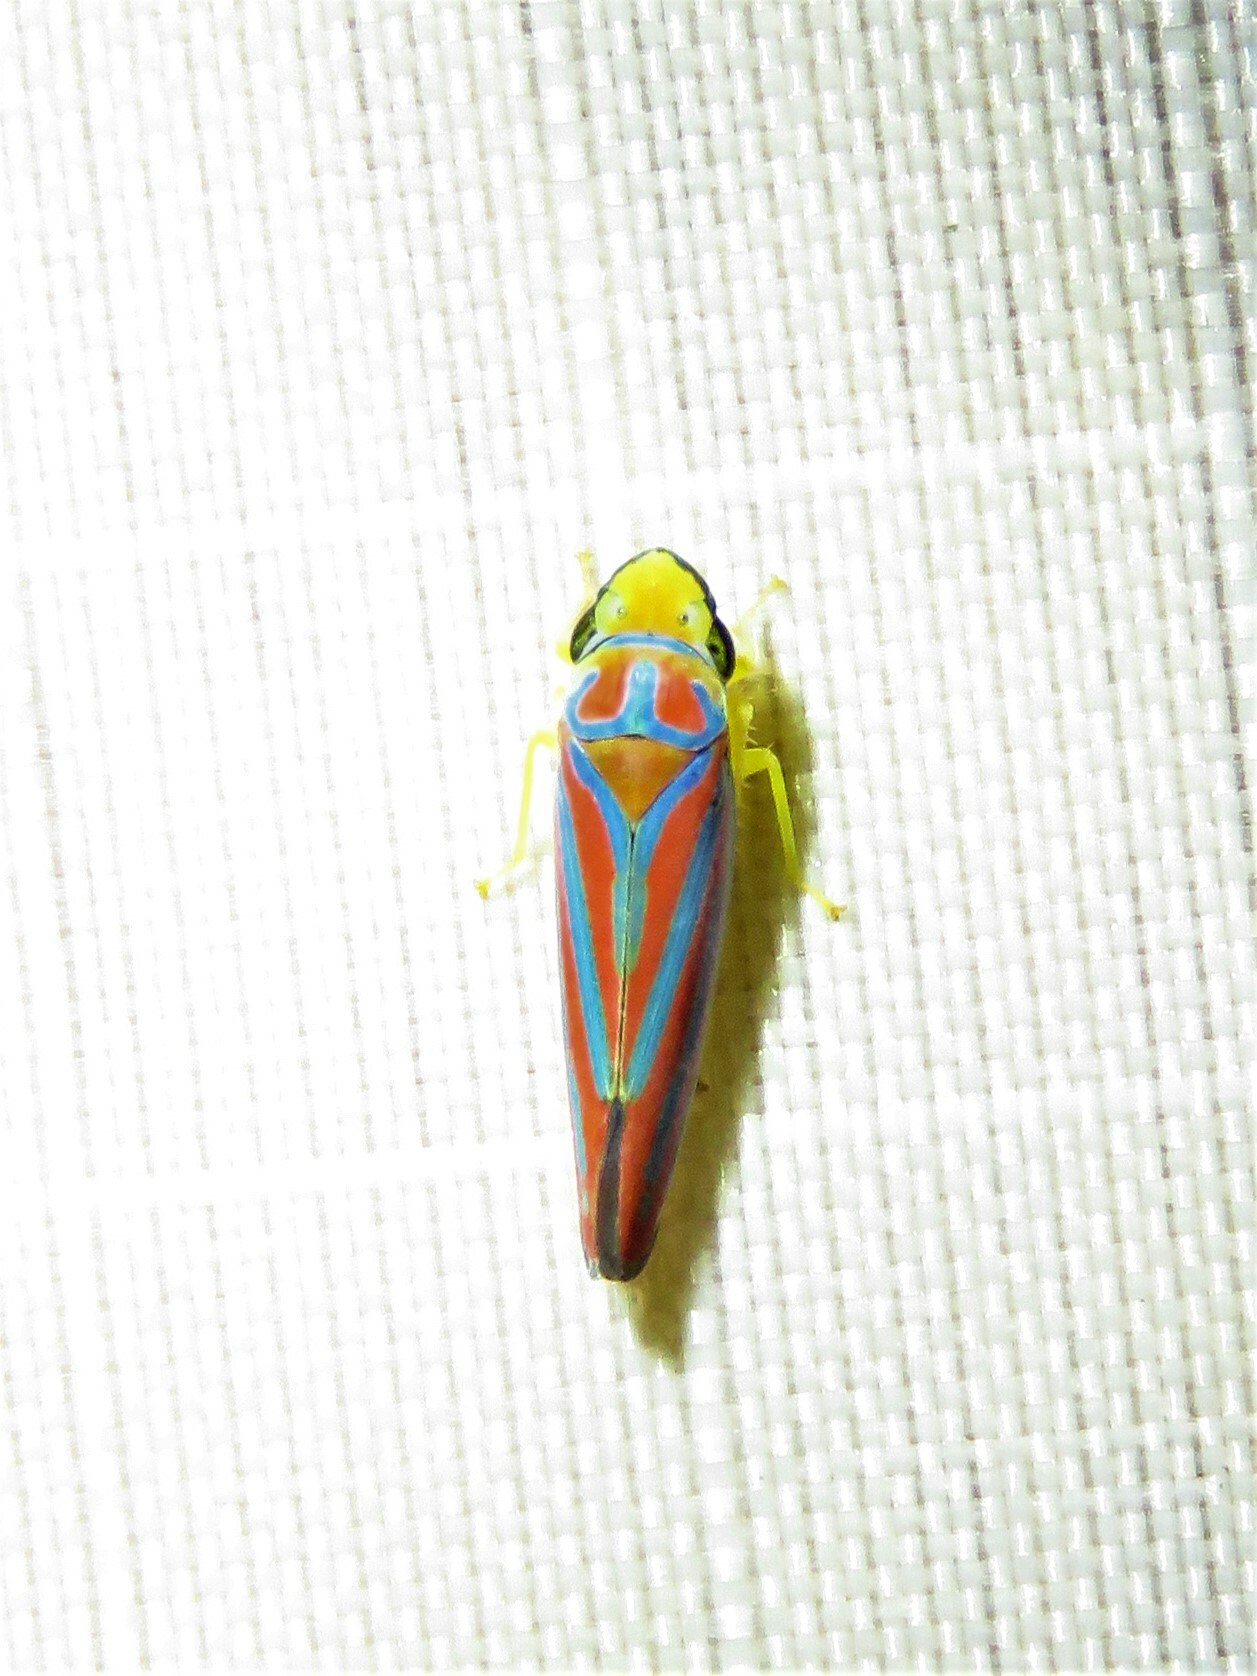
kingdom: Animalia
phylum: Arthropoda
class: Insecta
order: Hemiptera
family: Cicadellidae
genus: Graphocephala
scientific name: Graphocephala coccinea
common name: Candy-striped leafhopper
